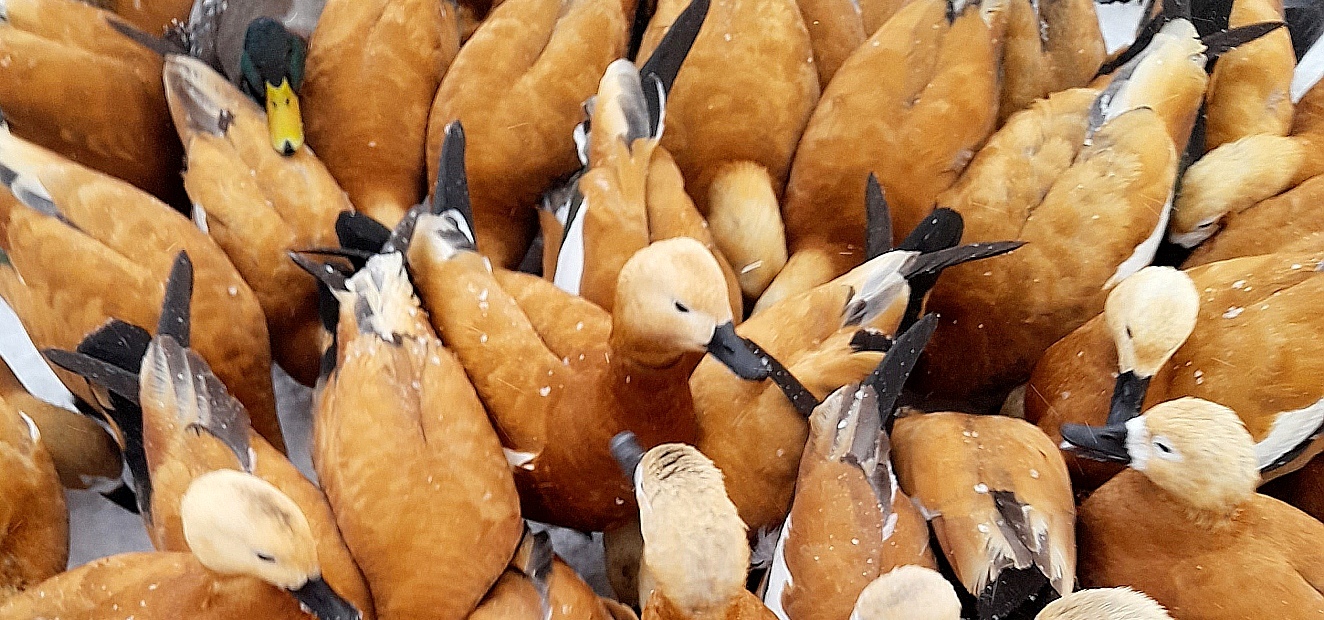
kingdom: Animalia
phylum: Chordata
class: Aves
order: Anseriformes
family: Anatidae
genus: Tadorna
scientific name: Tadorna ferruginea
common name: Ruddy shelduck
